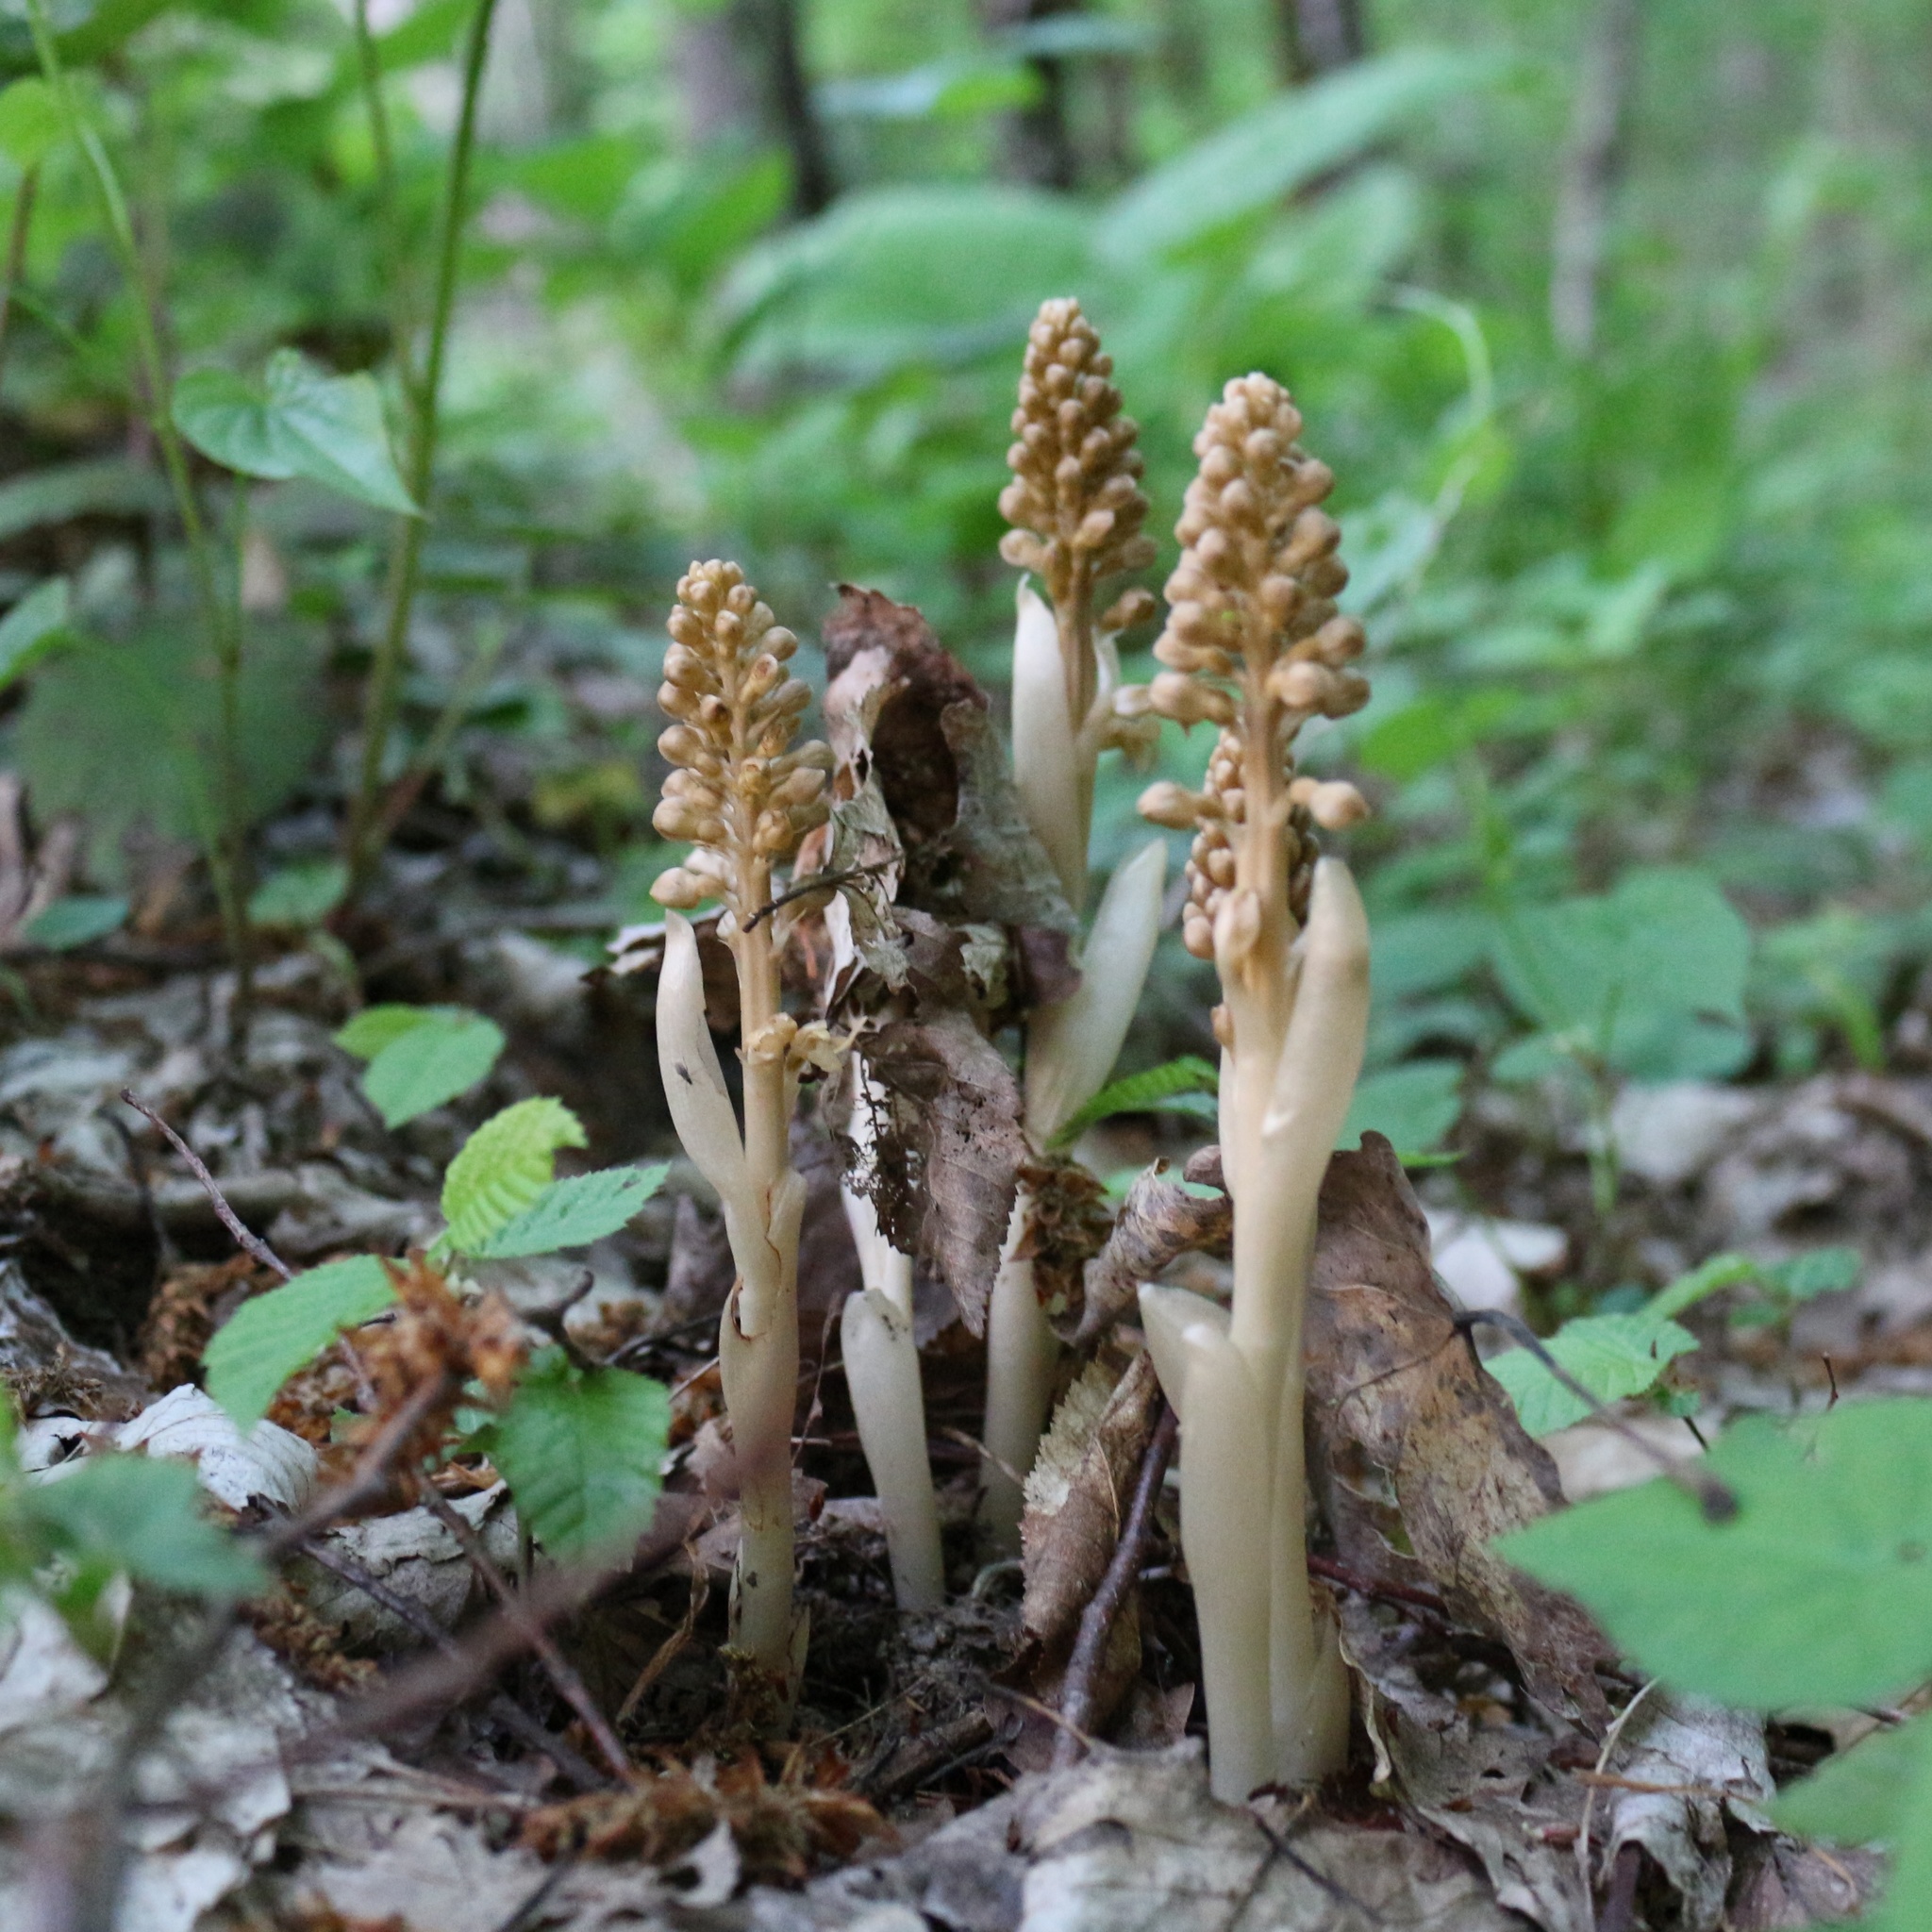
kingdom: Plantae
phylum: Tracheophyta
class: Liliopsida
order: Asparagales
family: Orchidaceae
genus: Neottia
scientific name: Neottia nidus-avis
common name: Bird's-nest orchid
